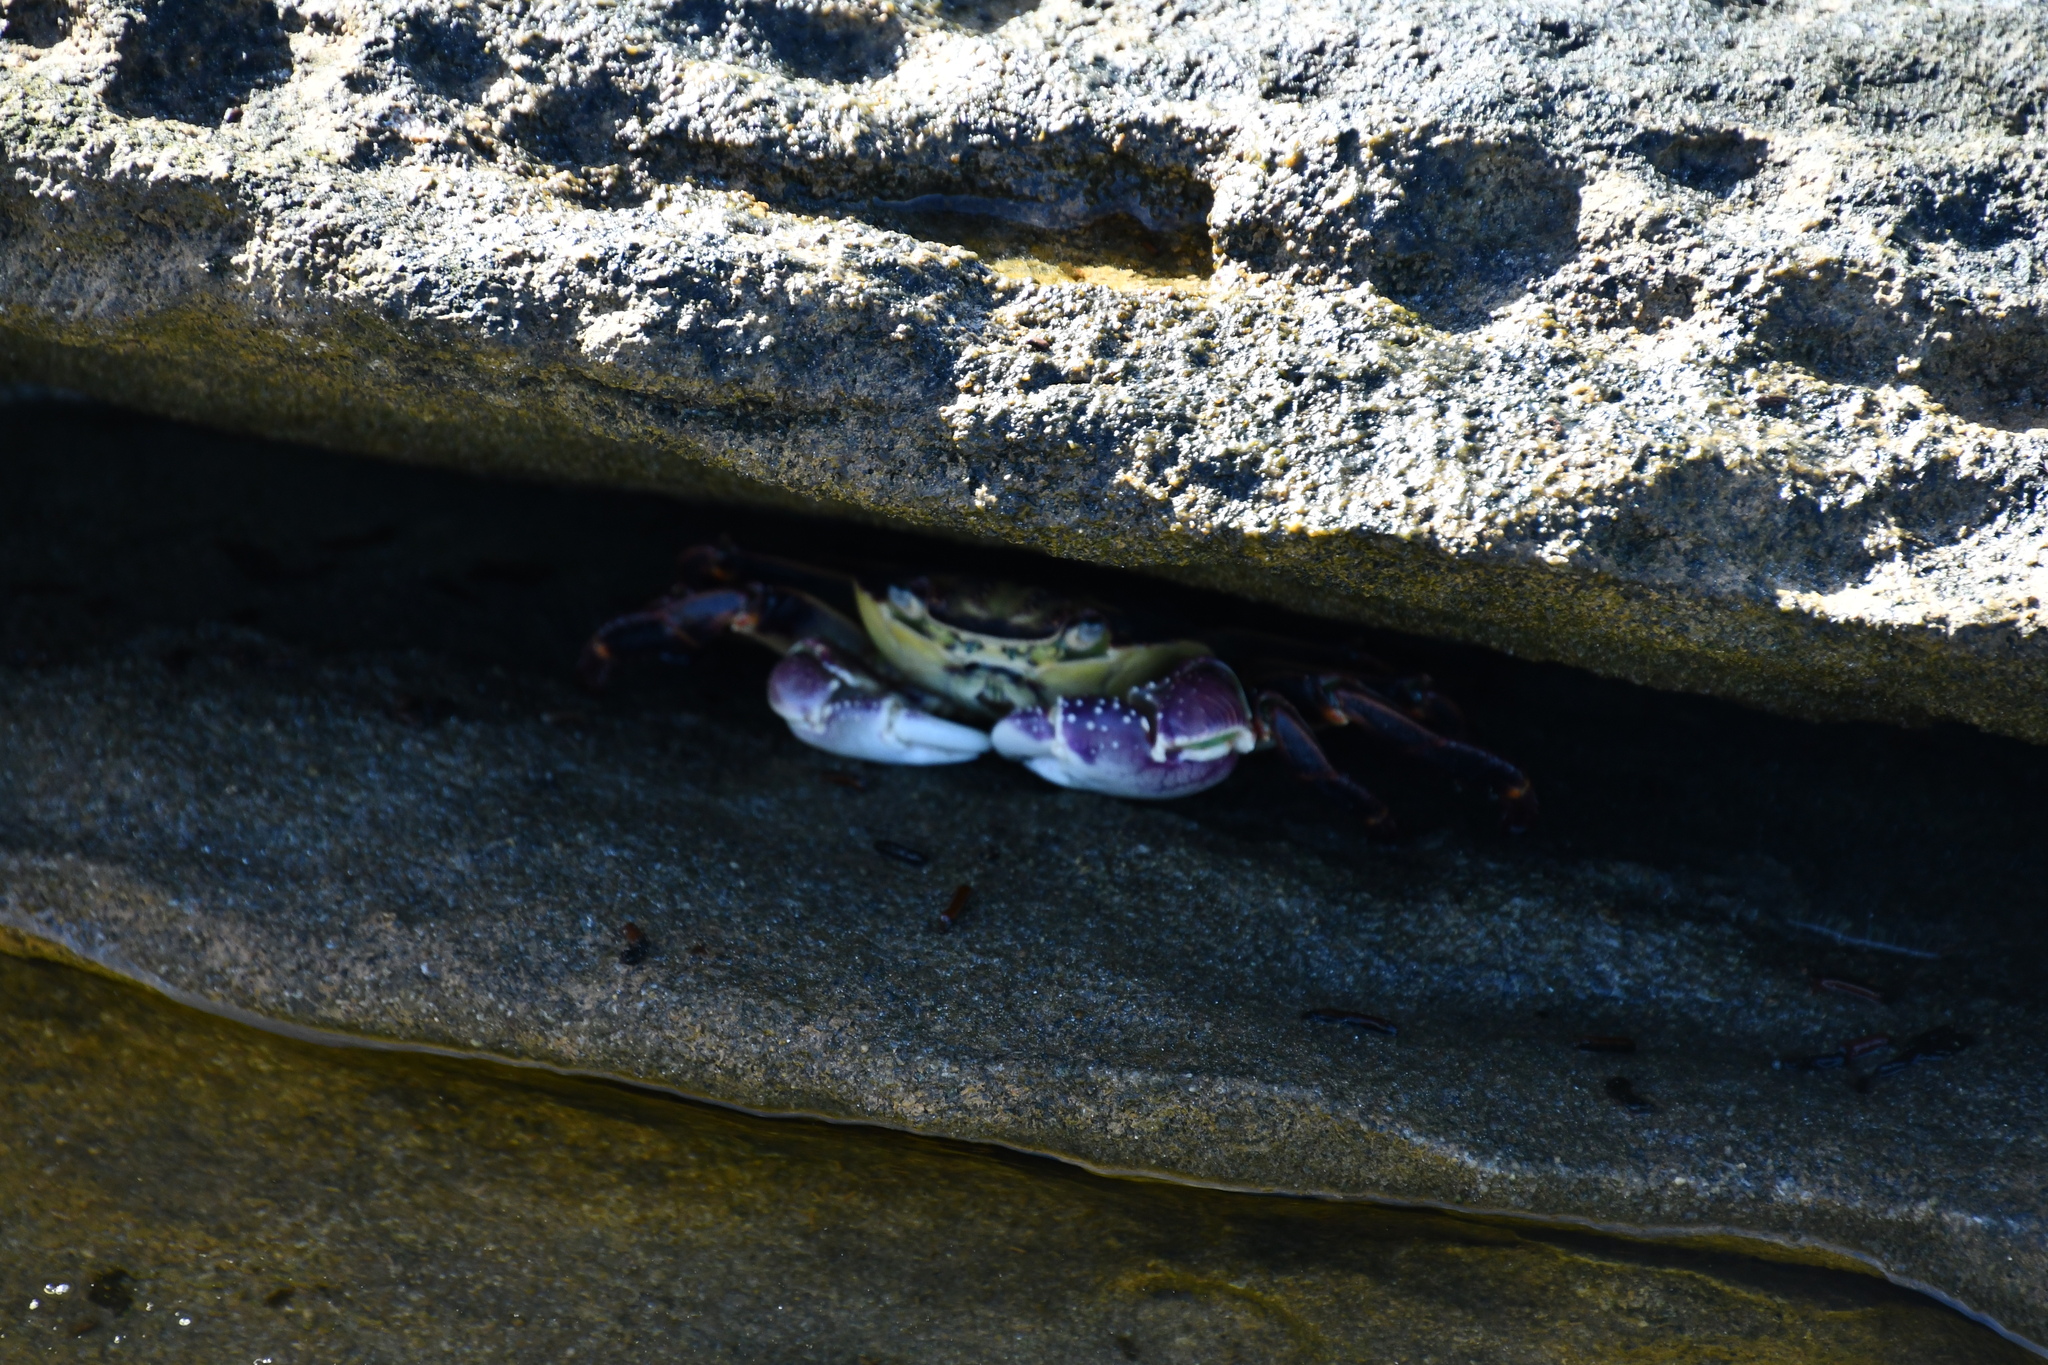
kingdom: Animalia
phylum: Arthropoda
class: Malacostraca
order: Decapoda
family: Grapsidae
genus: Leptograpsus
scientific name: Leptograpsus variegatus
